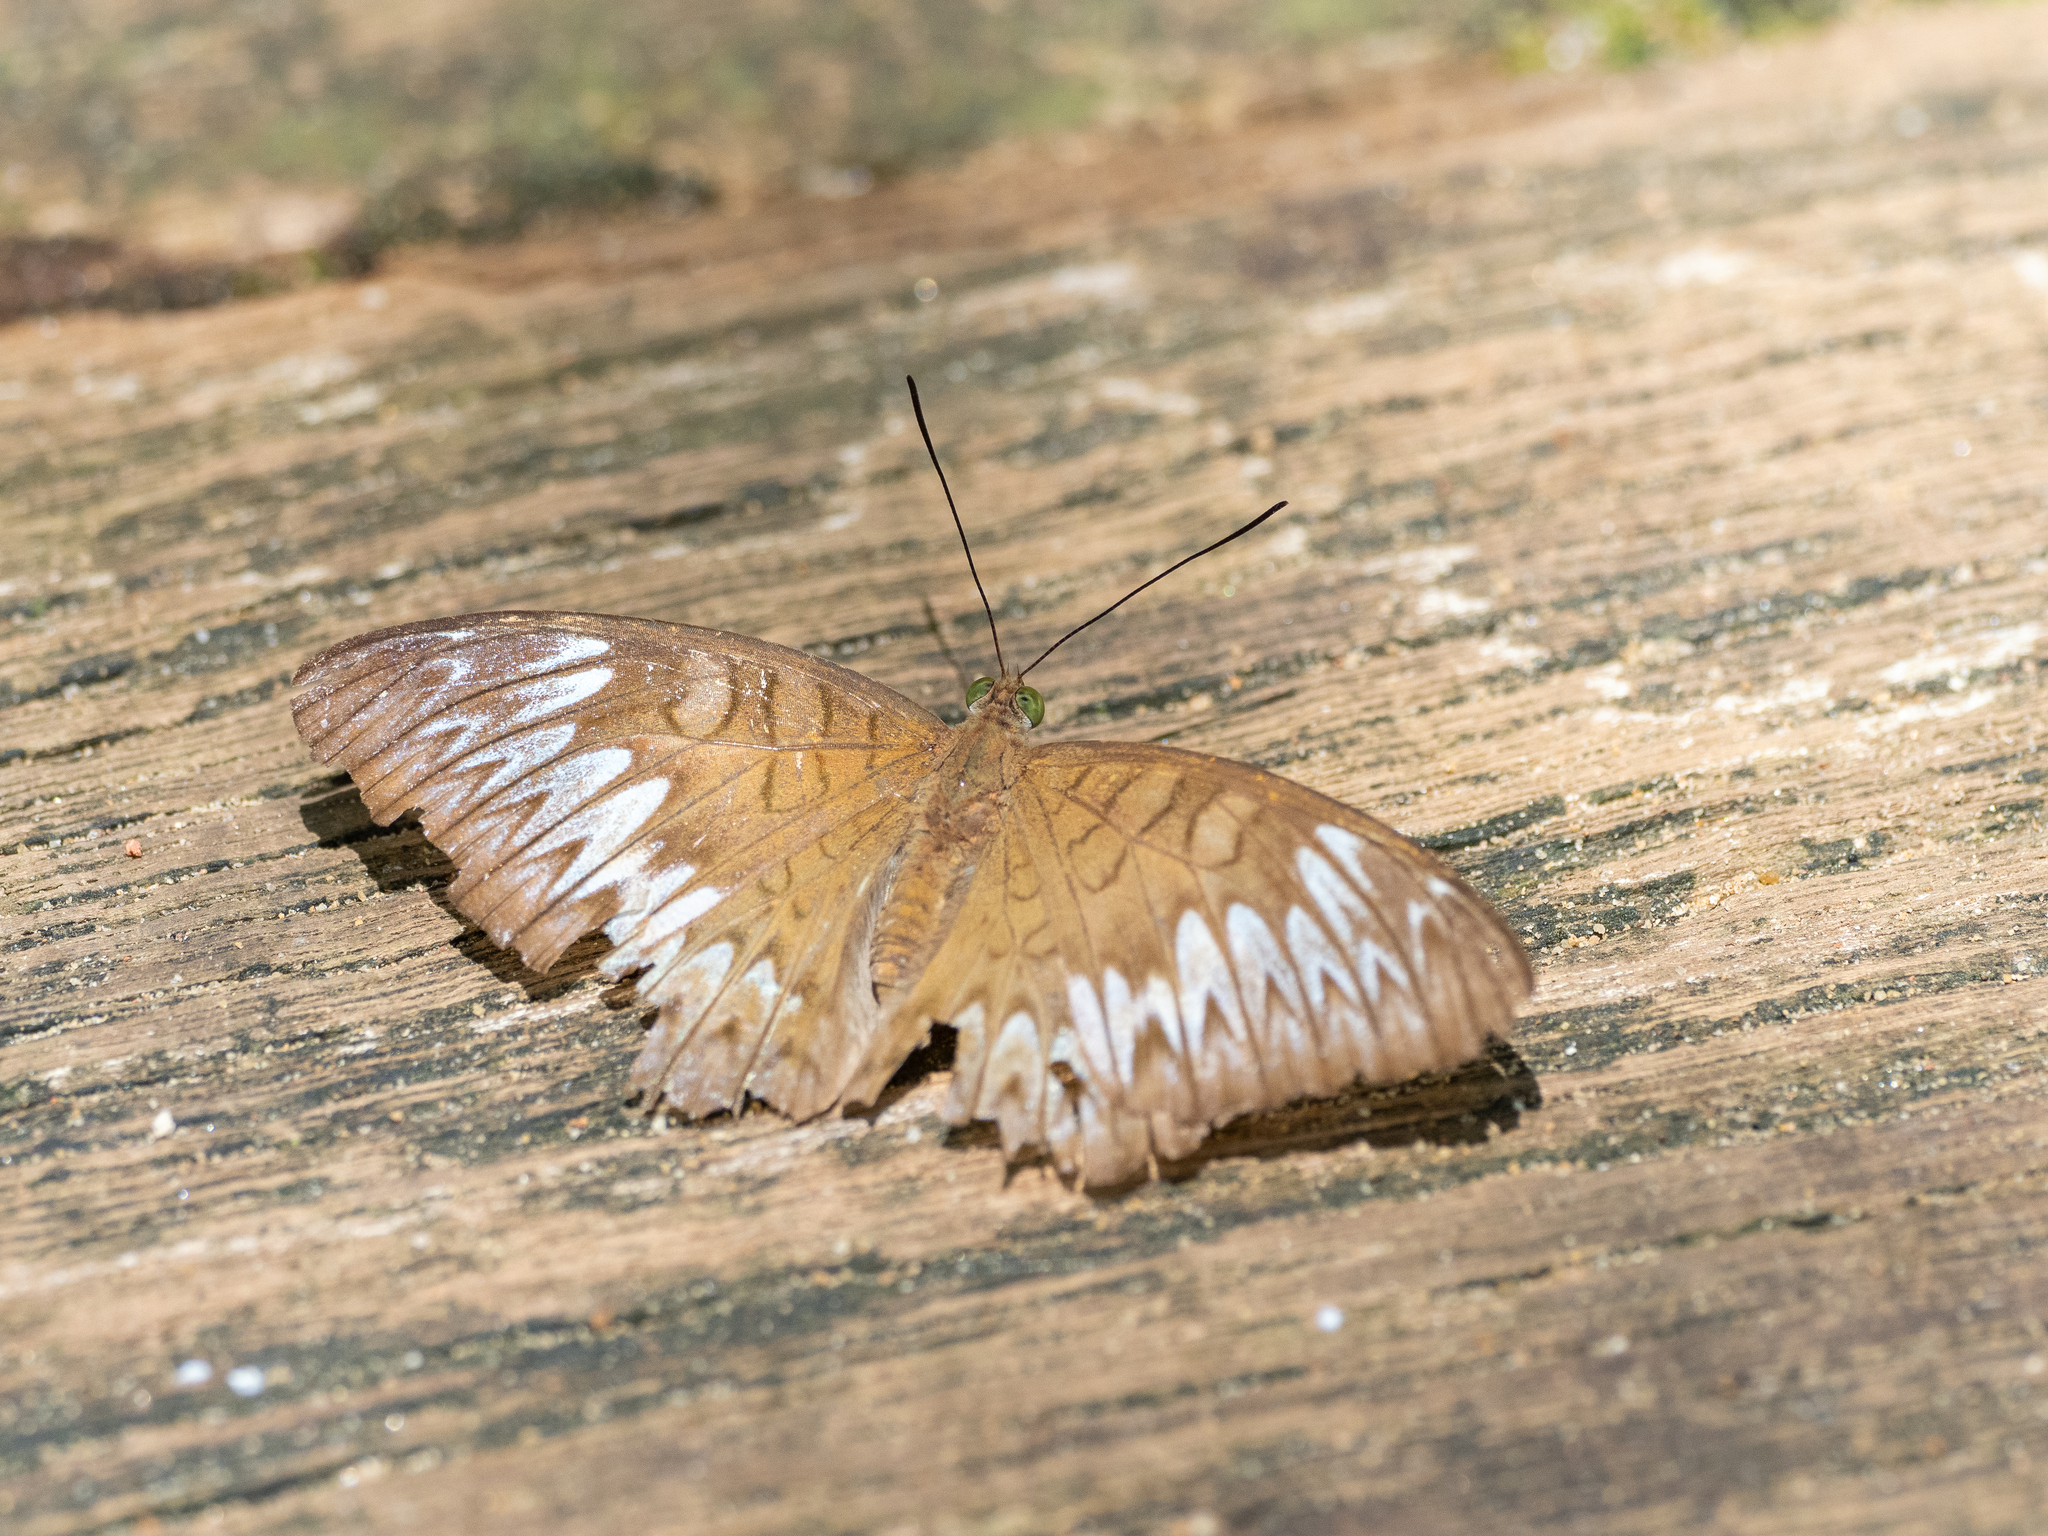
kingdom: Animalia
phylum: Arthropoda
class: Insecta
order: Lepidoptera
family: Nymphalidae
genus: Tanaecia
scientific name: Tanaecia pelea
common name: Malay viscount
